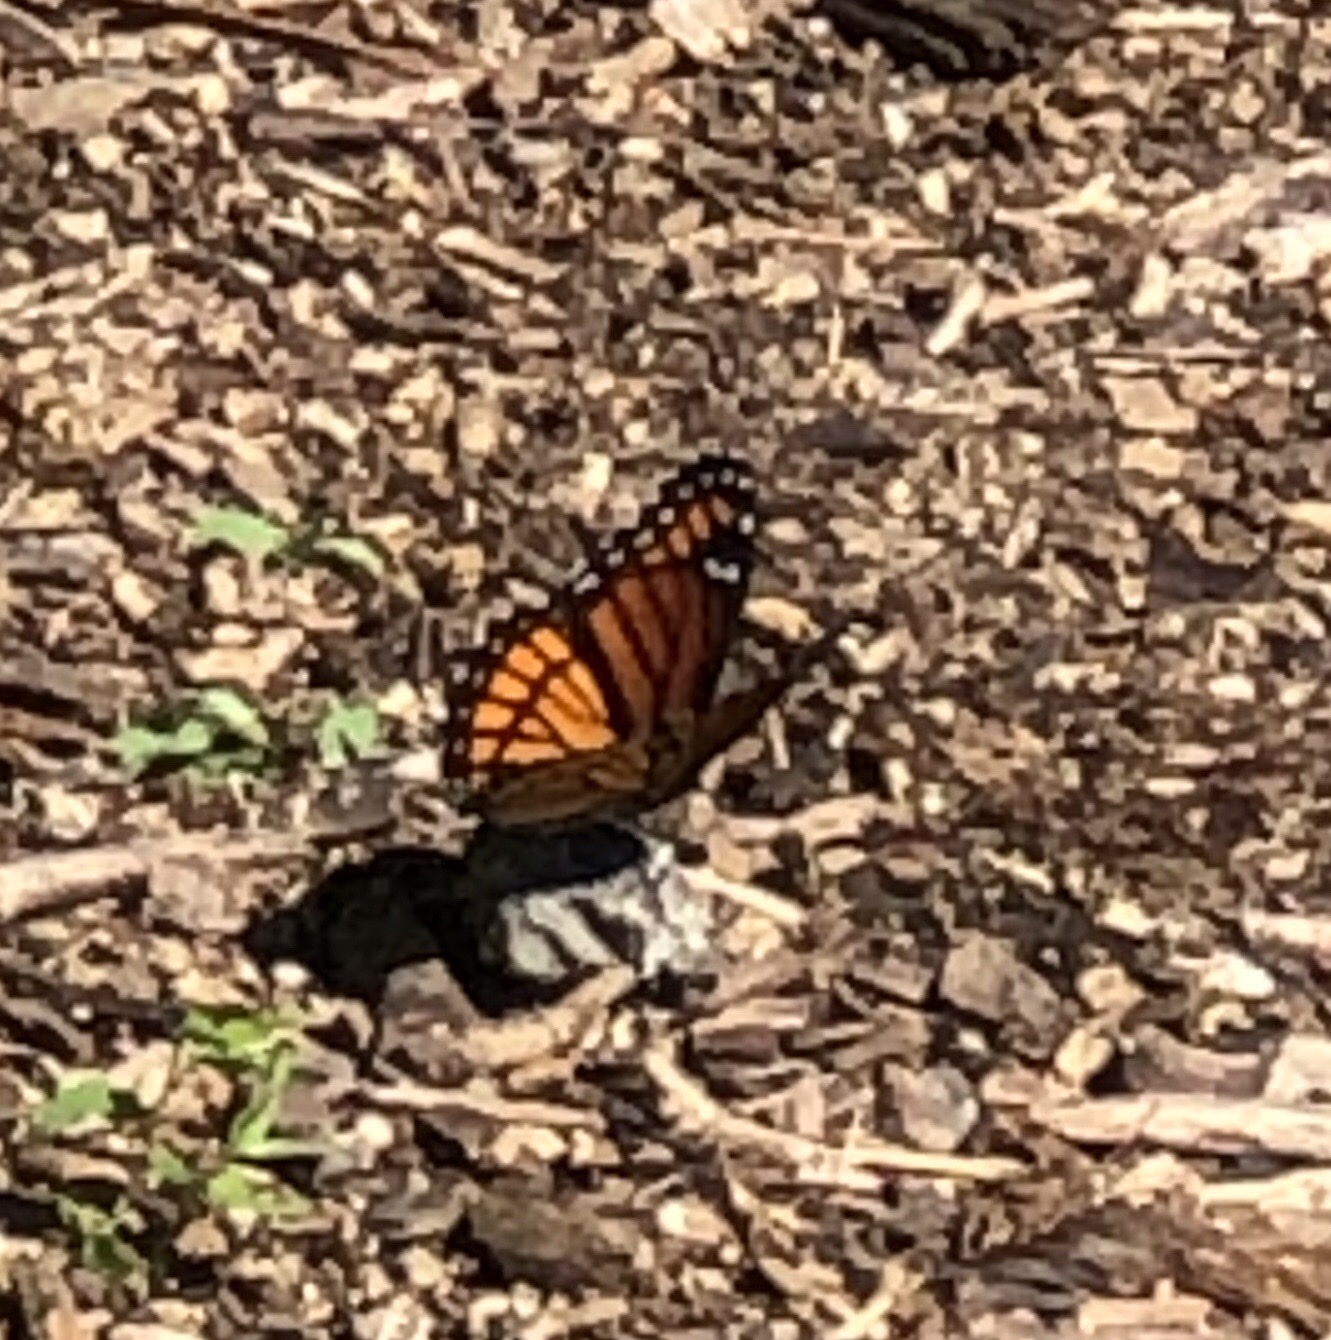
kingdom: Animalia
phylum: Arthropoda
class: Insecta
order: Lepidoptera
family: Nymphalidae
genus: Limenitis
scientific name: Limenitis archippus
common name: Viceroy
